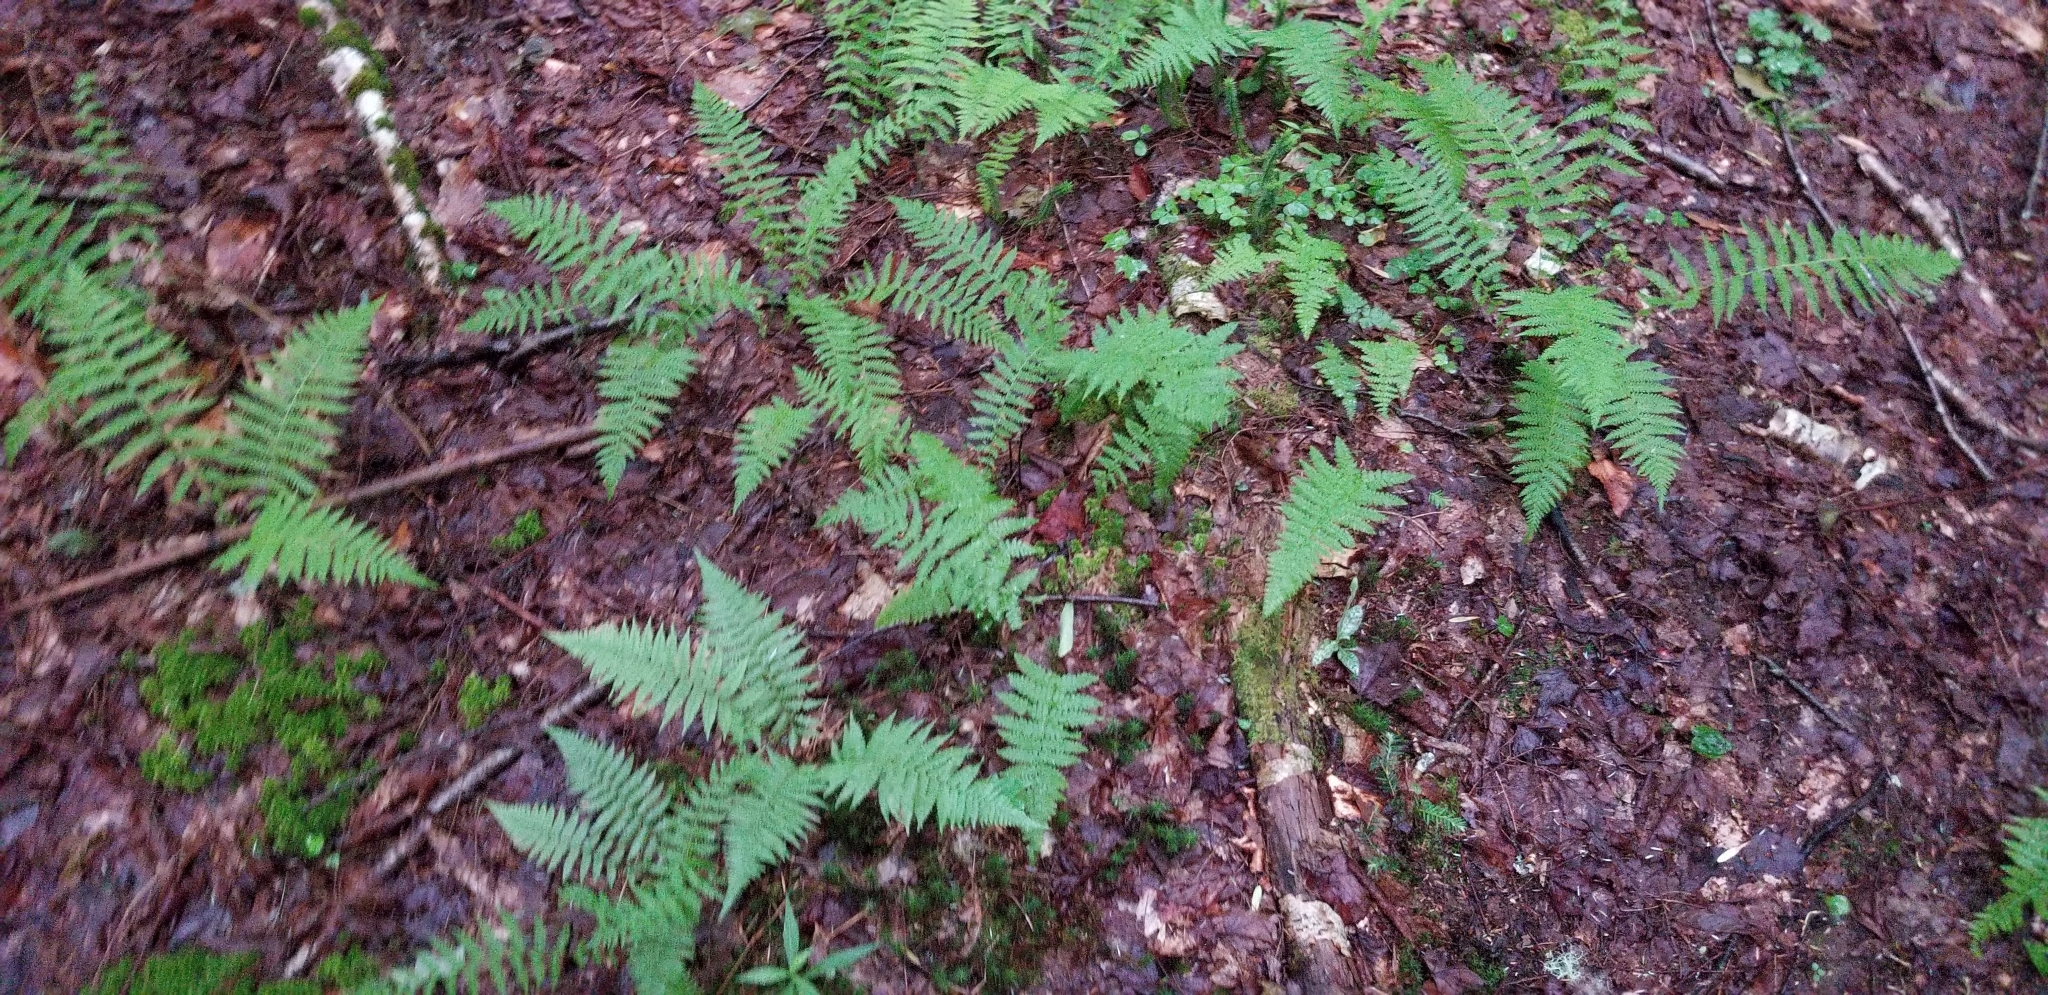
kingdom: Plantae
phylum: Tracheophyta
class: Polypodiopsida
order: Polypodiales
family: Athyriaceae
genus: Athyrium
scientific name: Athyrium angustum
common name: Northern lady fern
